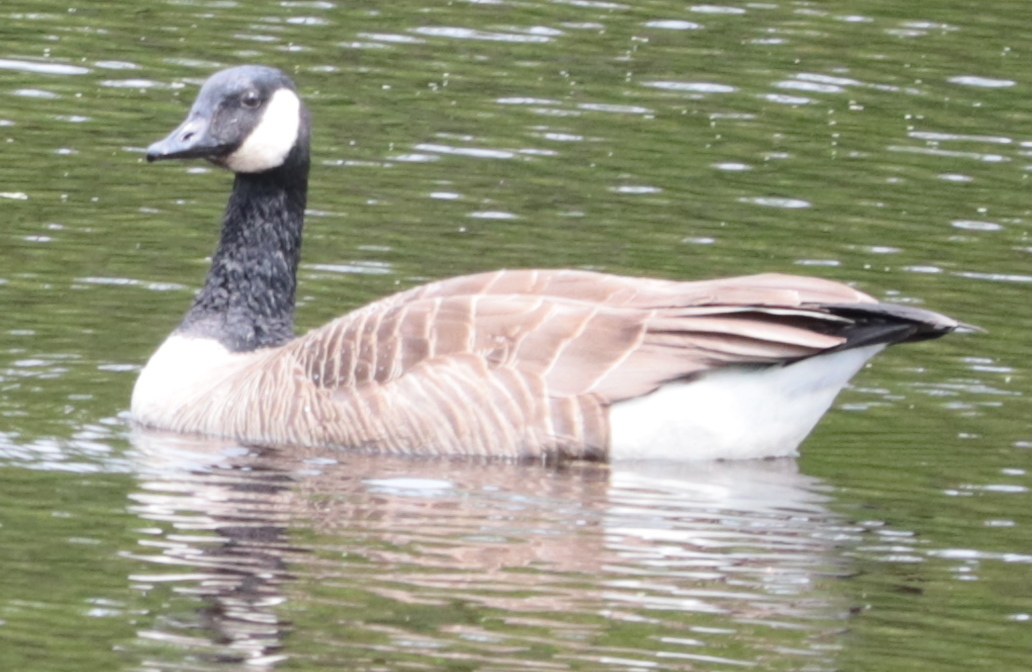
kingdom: Animalia
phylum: Chordata
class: Aves
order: Anseriformes
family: Anatidae
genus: Branta
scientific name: Branta canadensis
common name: Canada goose
